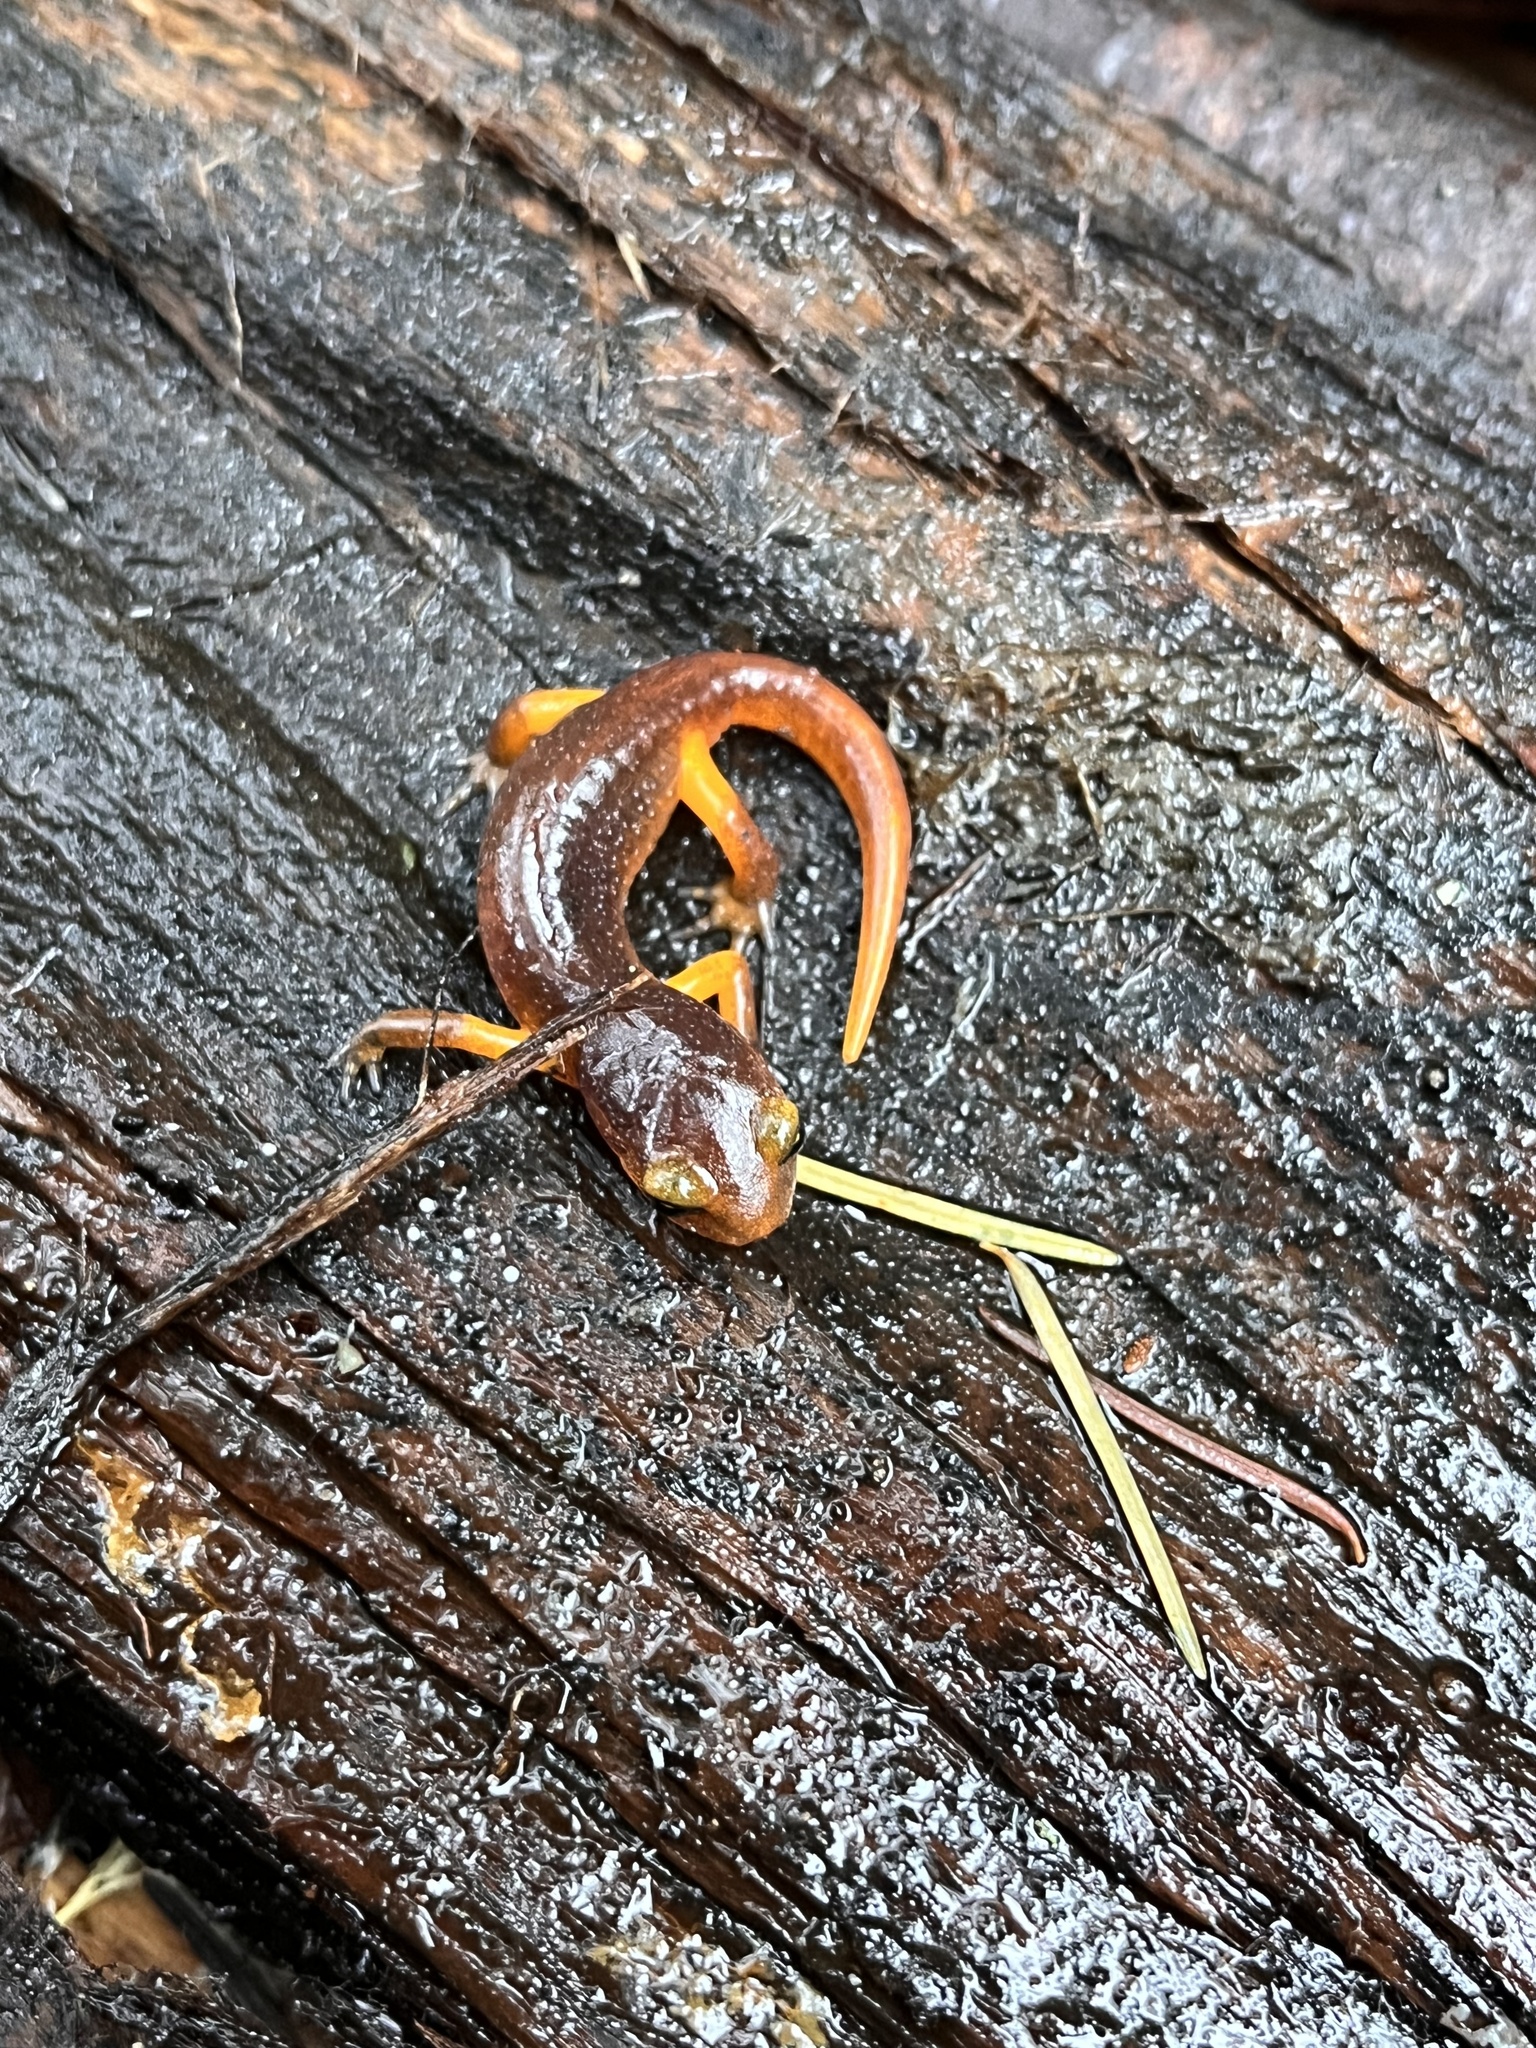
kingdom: Animalia
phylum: Chordata
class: Amphibia
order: Caudata
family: Plethodontidae
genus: Ensatina
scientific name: Ensatina eschscholtzii
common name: Ensatina
